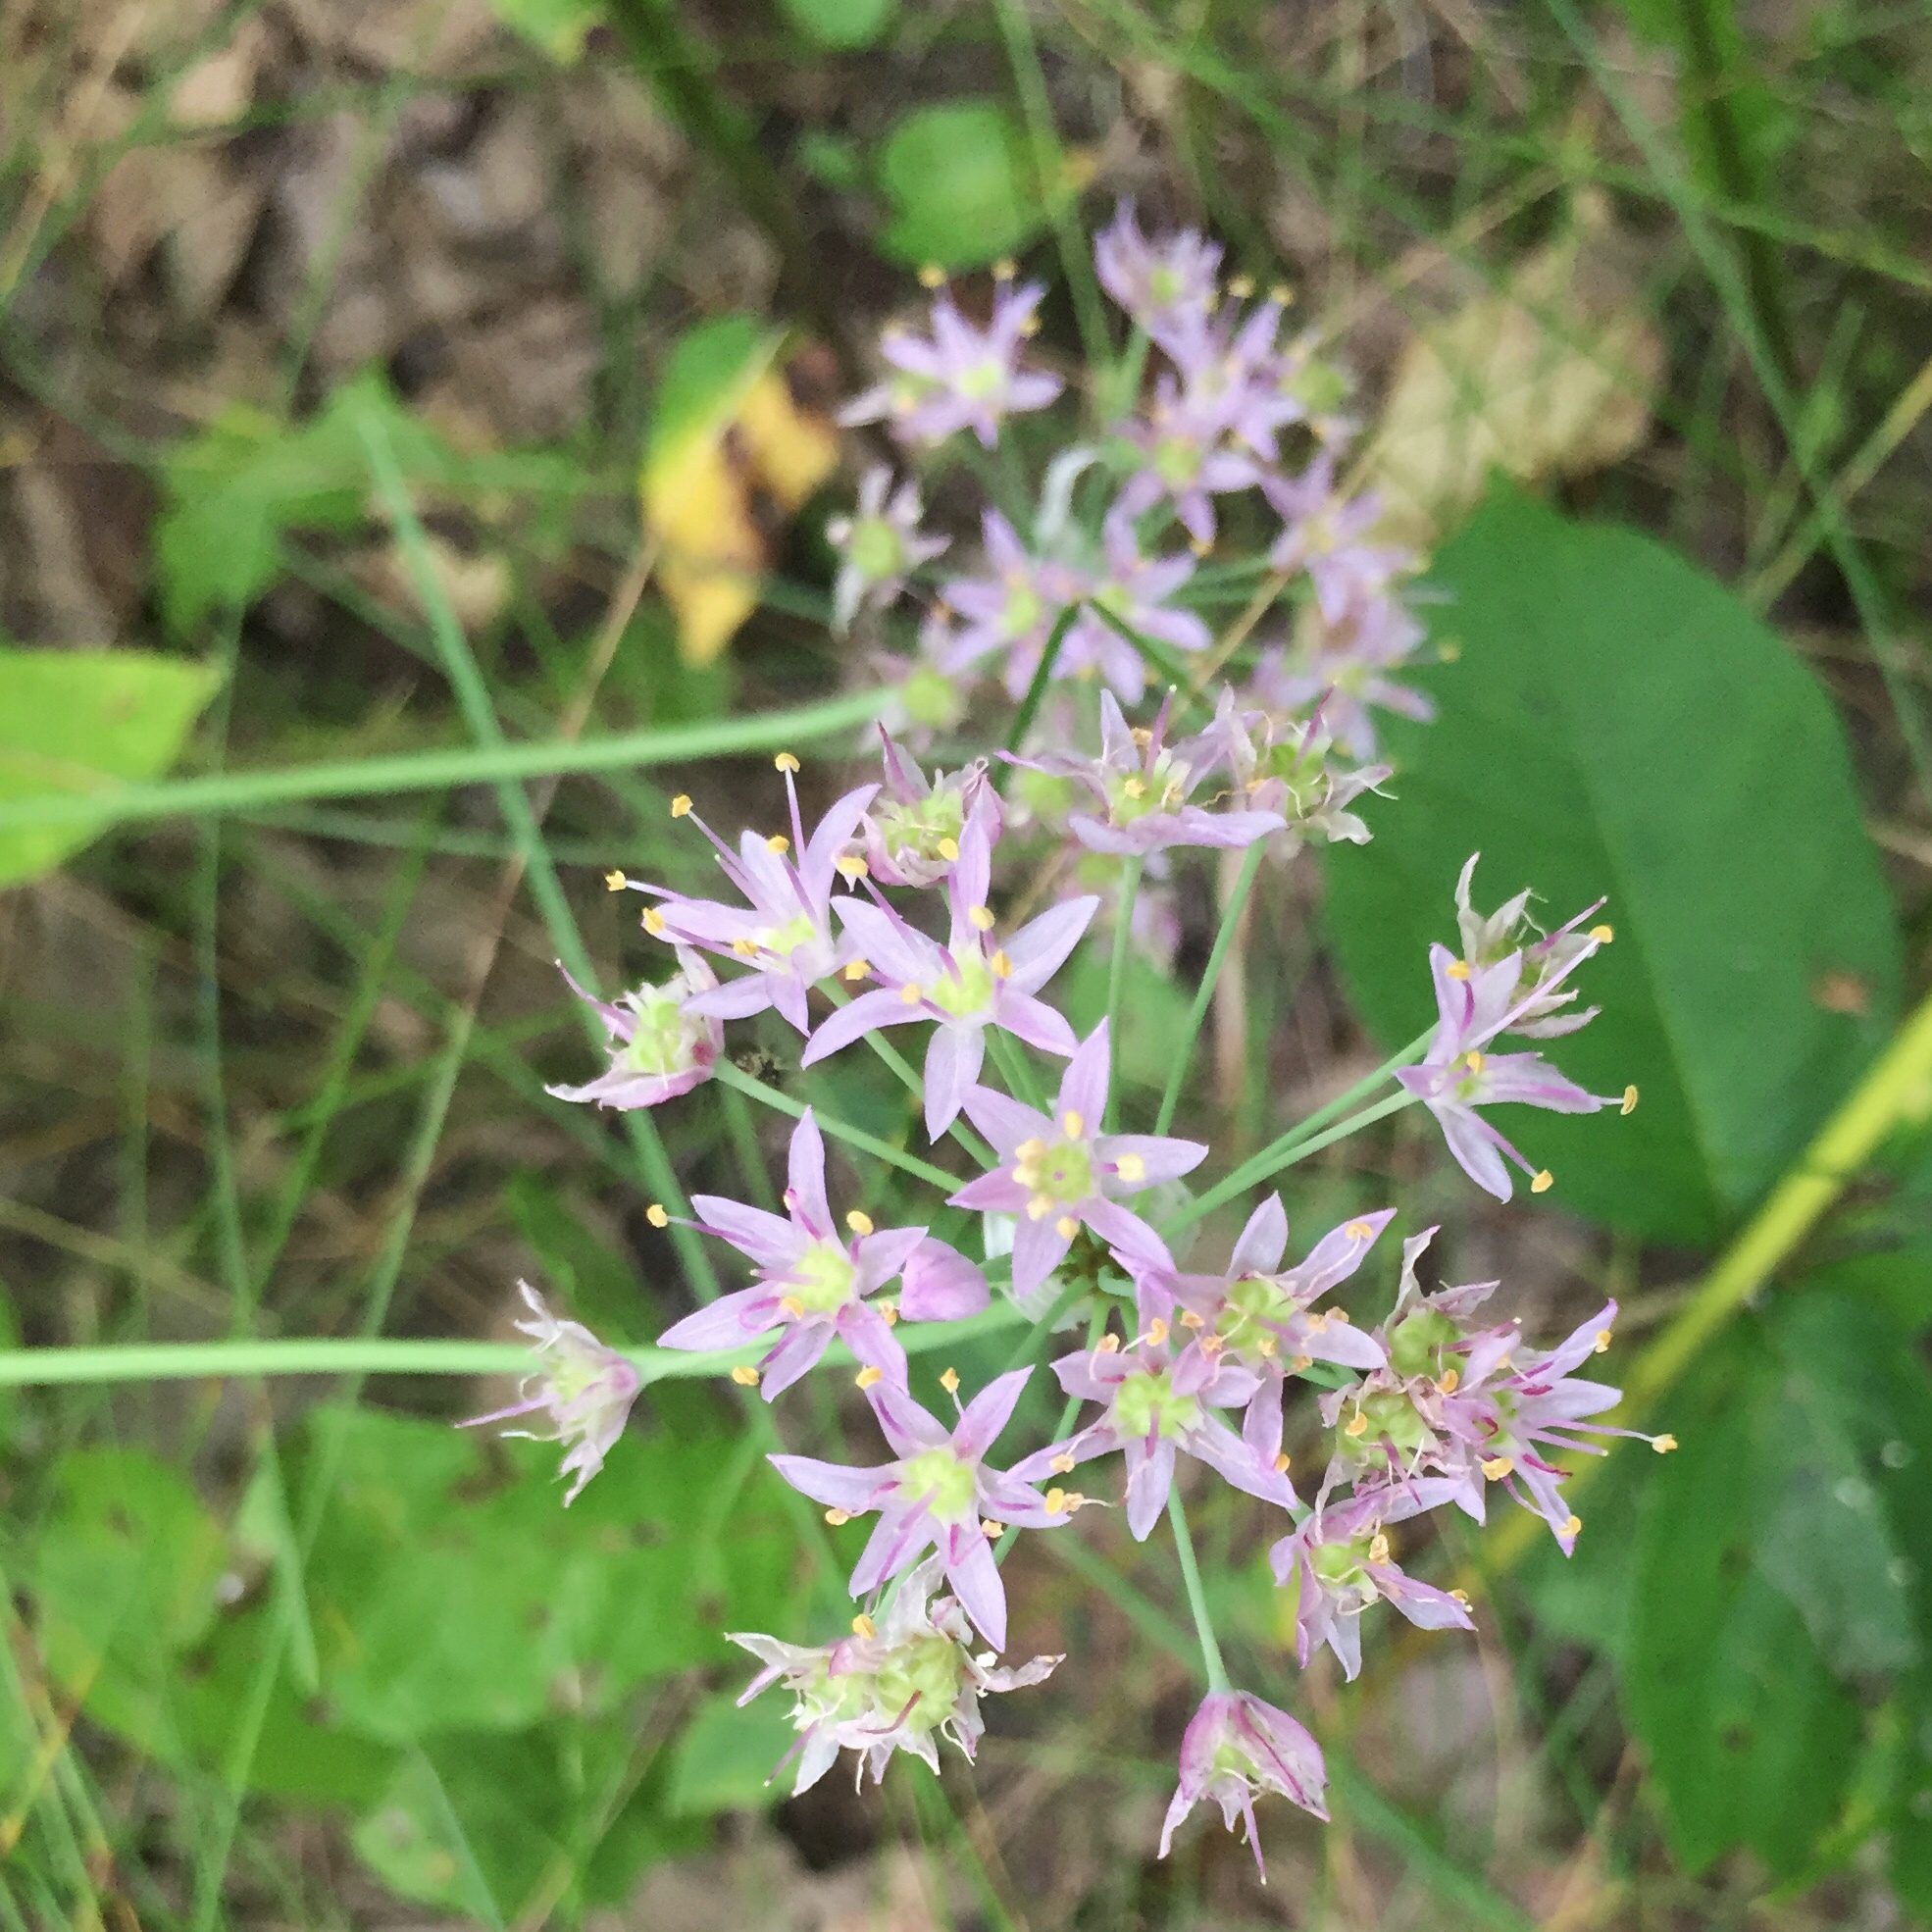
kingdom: Plantae
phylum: Tracheophyta
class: Liliopsida
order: Asparagales
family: Amaryllidaceae
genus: Allium
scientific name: Allium stellatum
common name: Autumn onion
